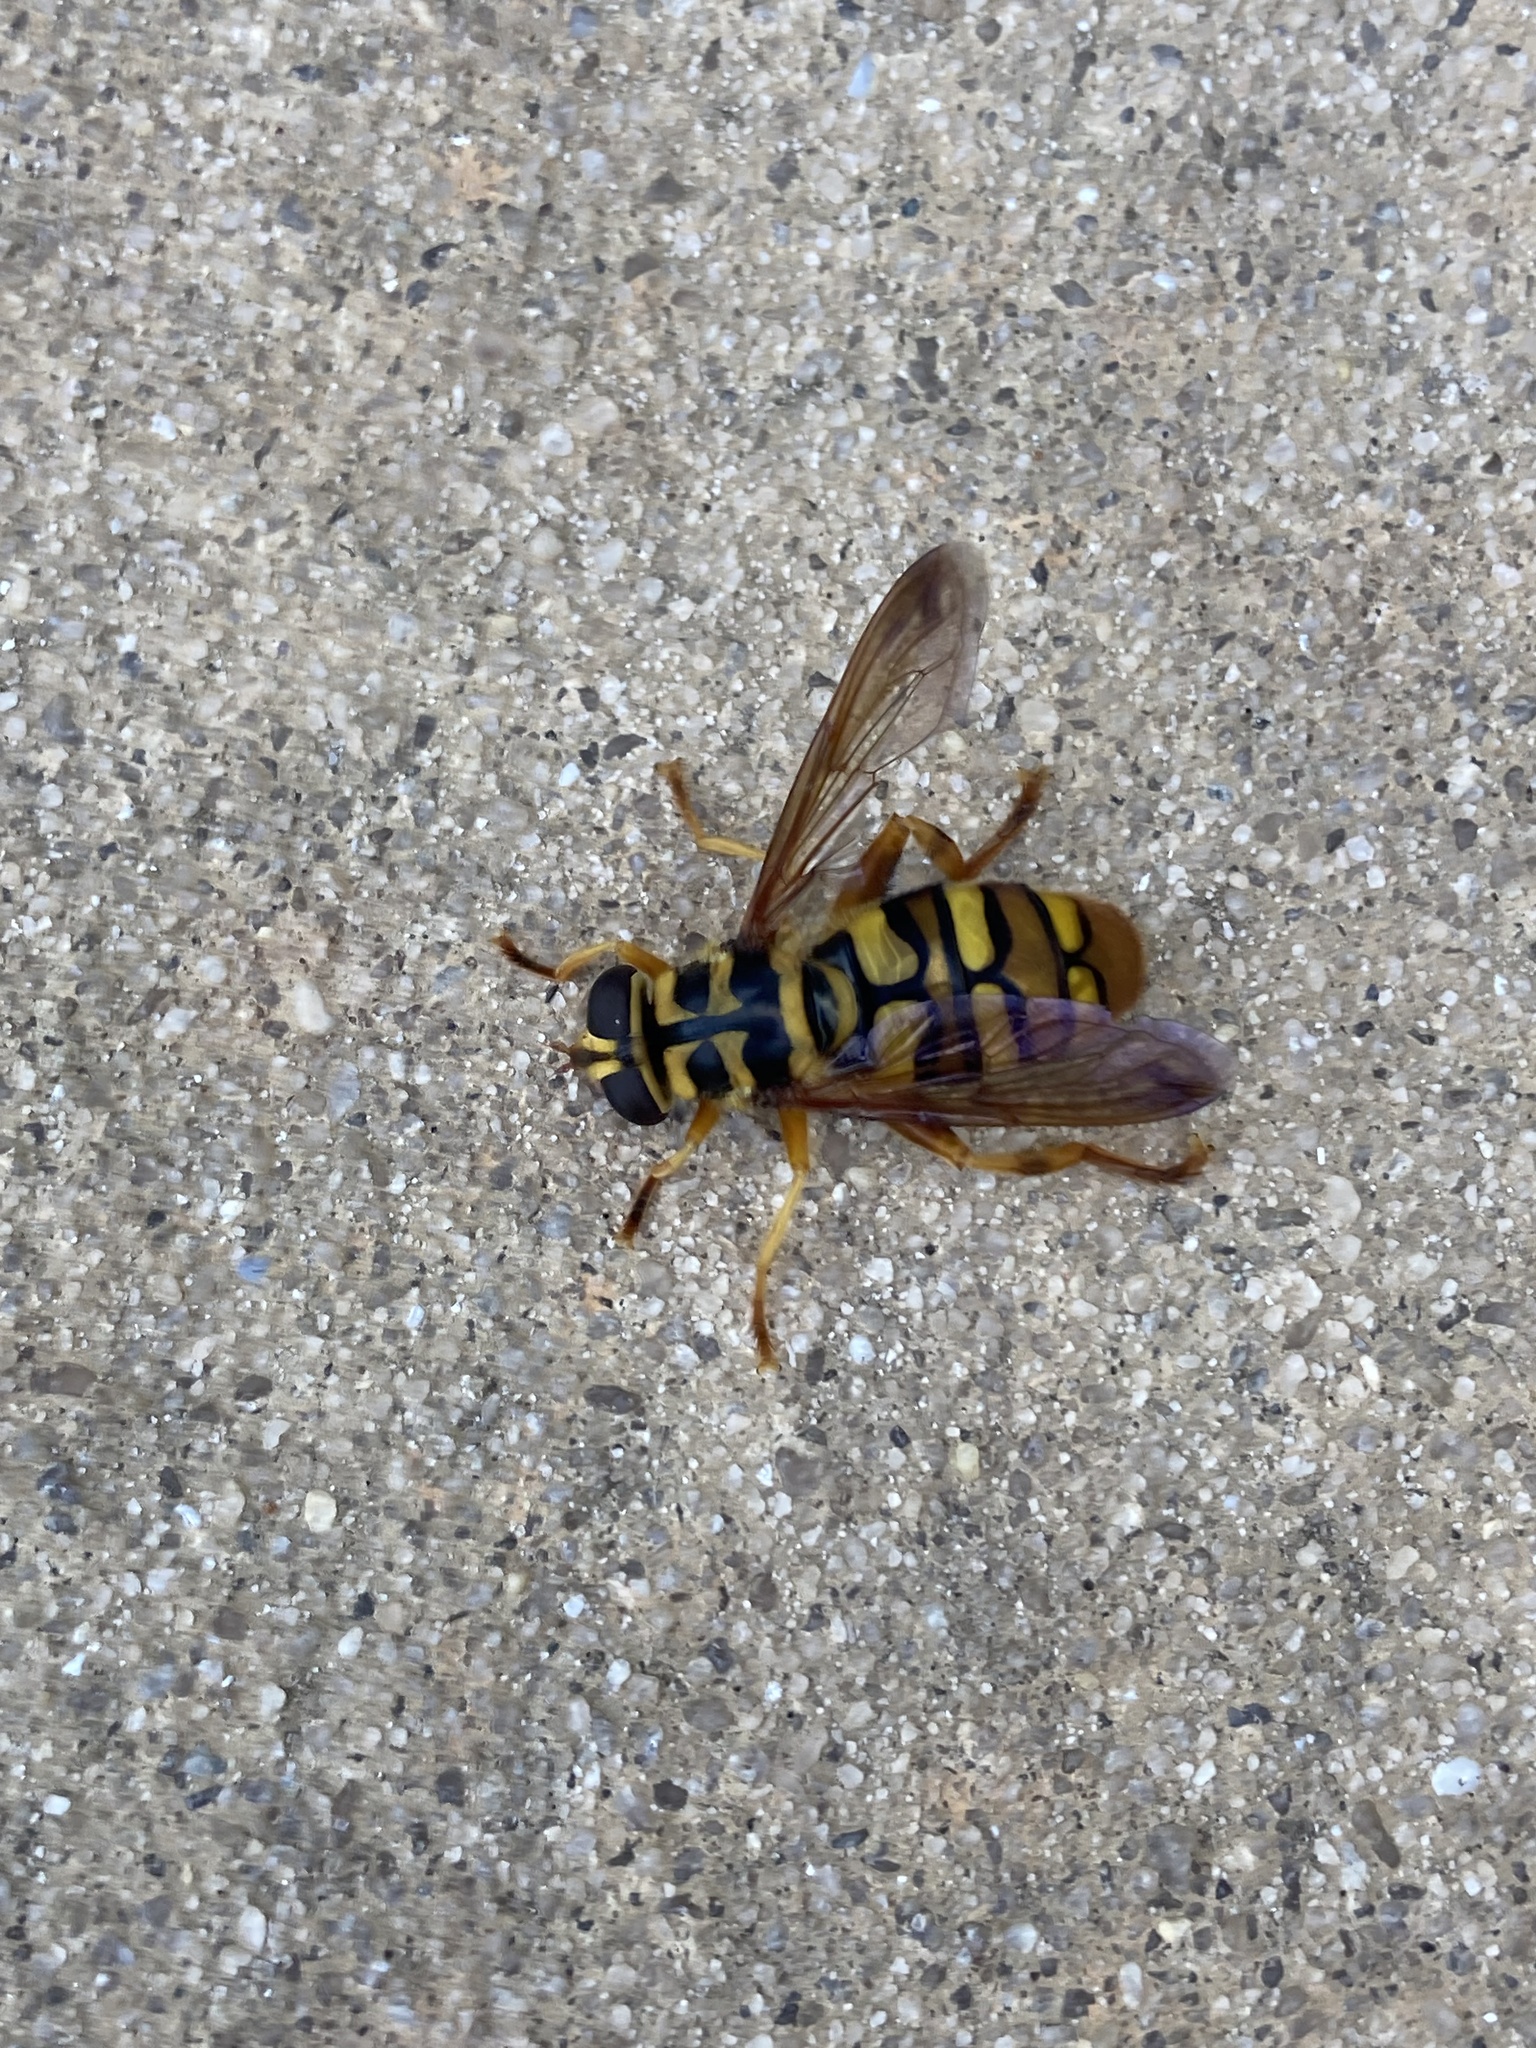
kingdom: Animalia
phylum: Arthropoda
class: Insecta
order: Diptera
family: Syrphidae
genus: Milesia
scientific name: Milesia virginiensis
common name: Virginia giant
